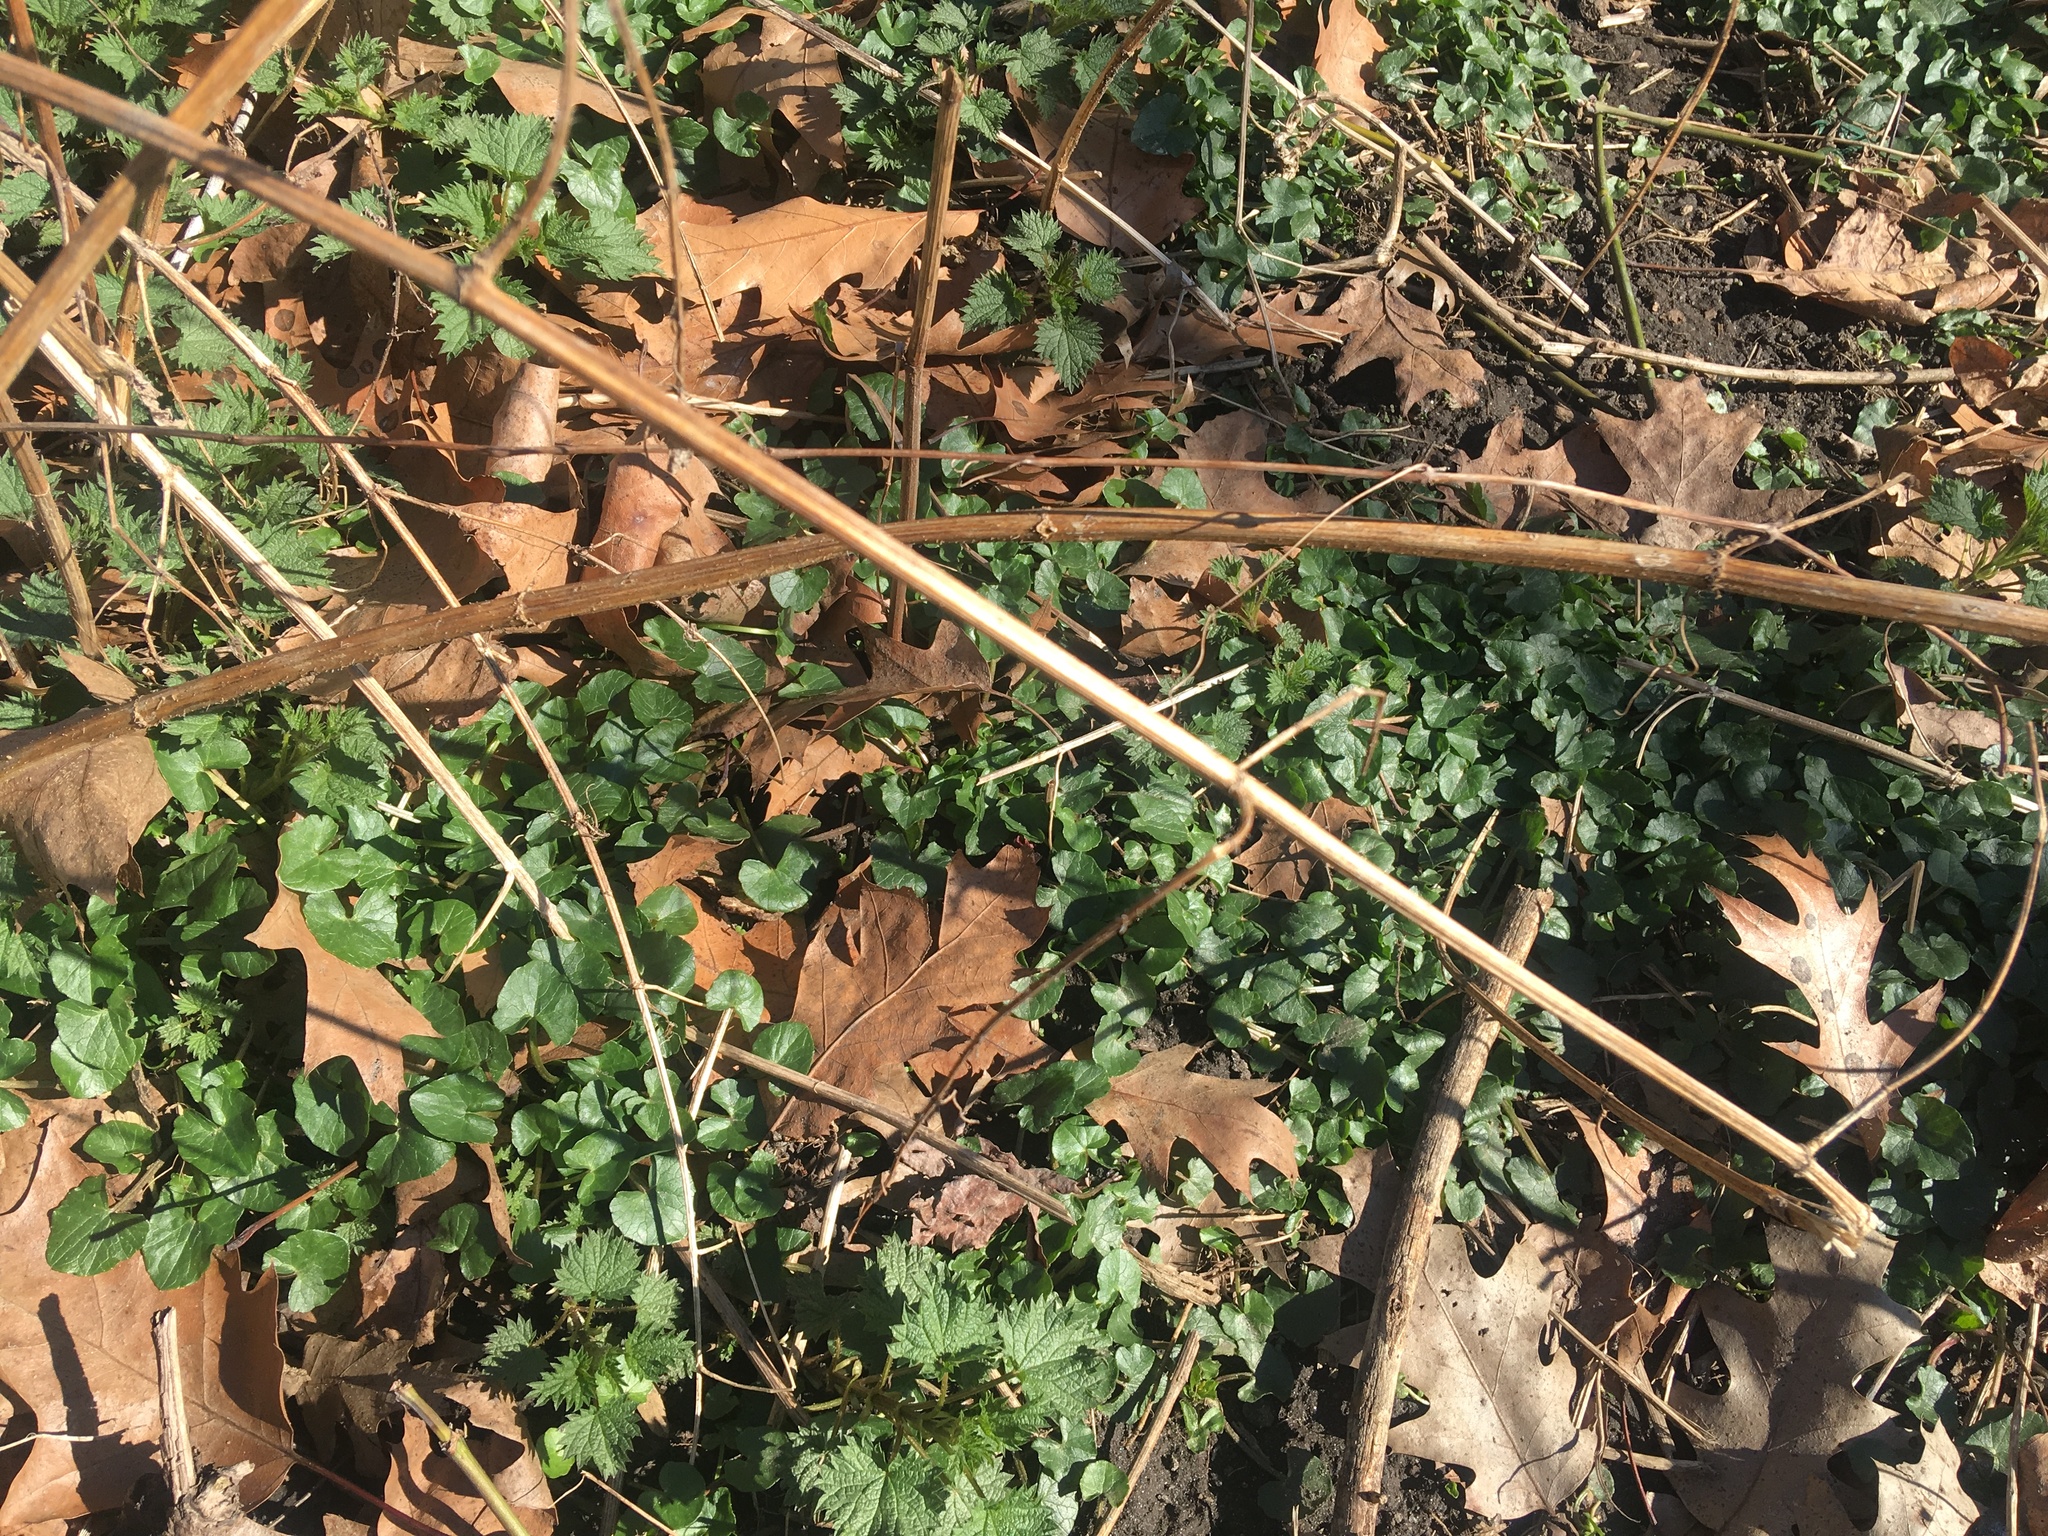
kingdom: Plantae
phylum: Tracheophyta
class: Magnoliopsida
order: Ranunculales
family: Ranunculaceae
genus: Ficaria
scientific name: Ficaria verna
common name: Lesser celandine
